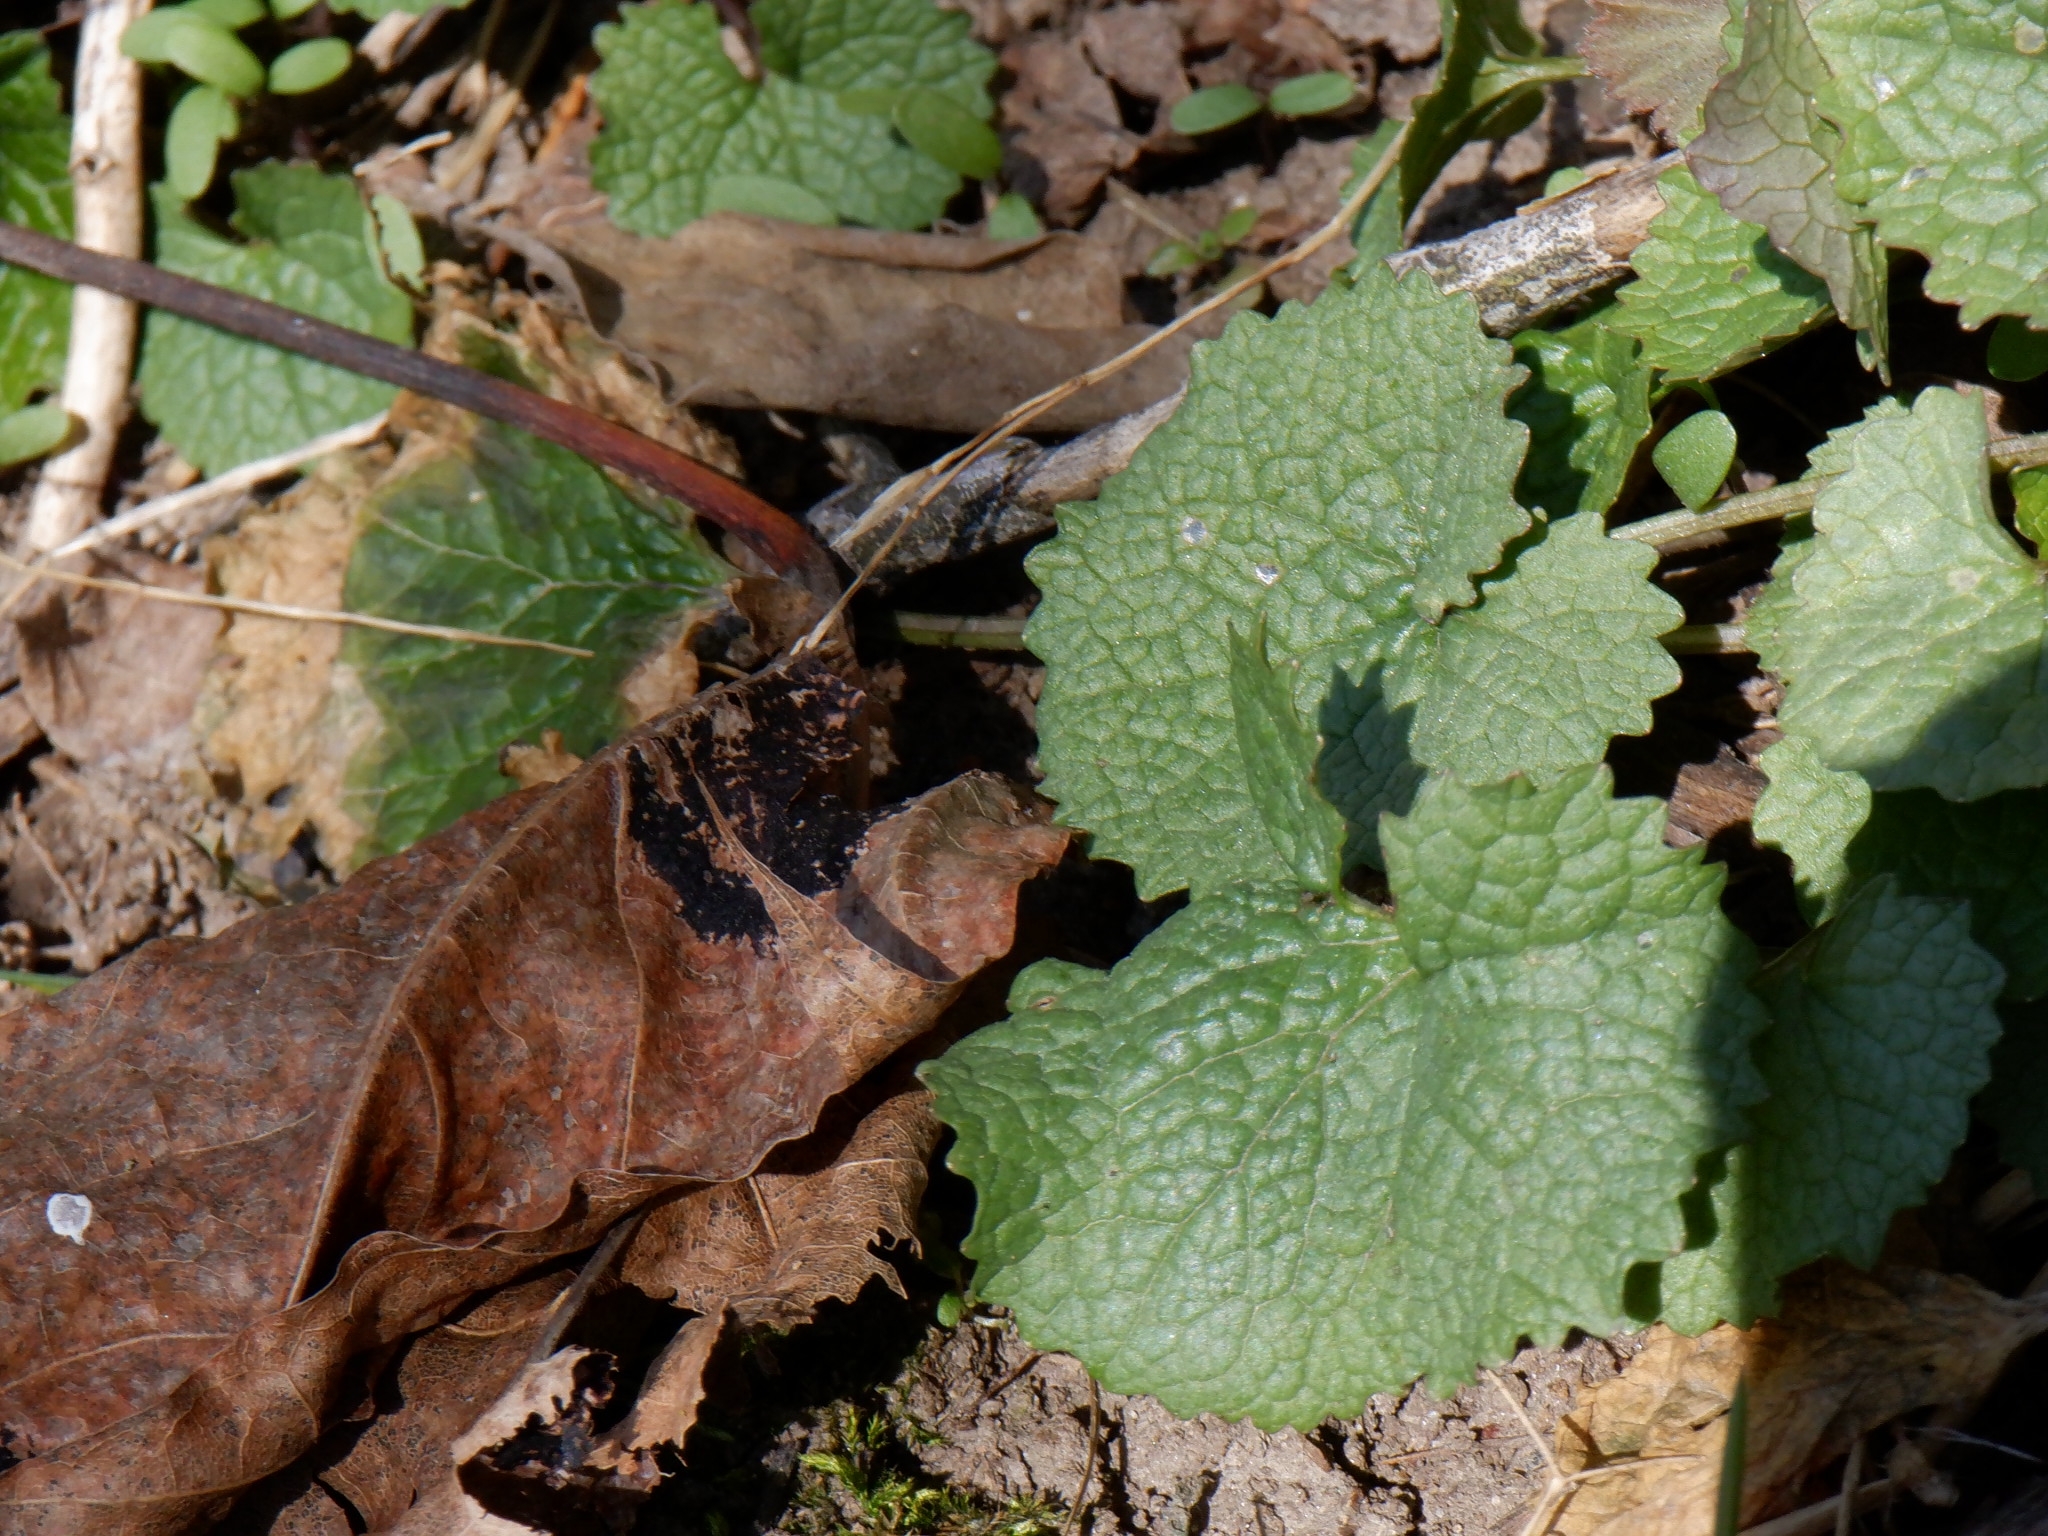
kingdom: Plantae
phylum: Tracheophyta
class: Magnoliopsida
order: Brassicales
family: Brassicaceae
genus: Alliaria
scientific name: Alliaria petiolata
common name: Garlic mustard
